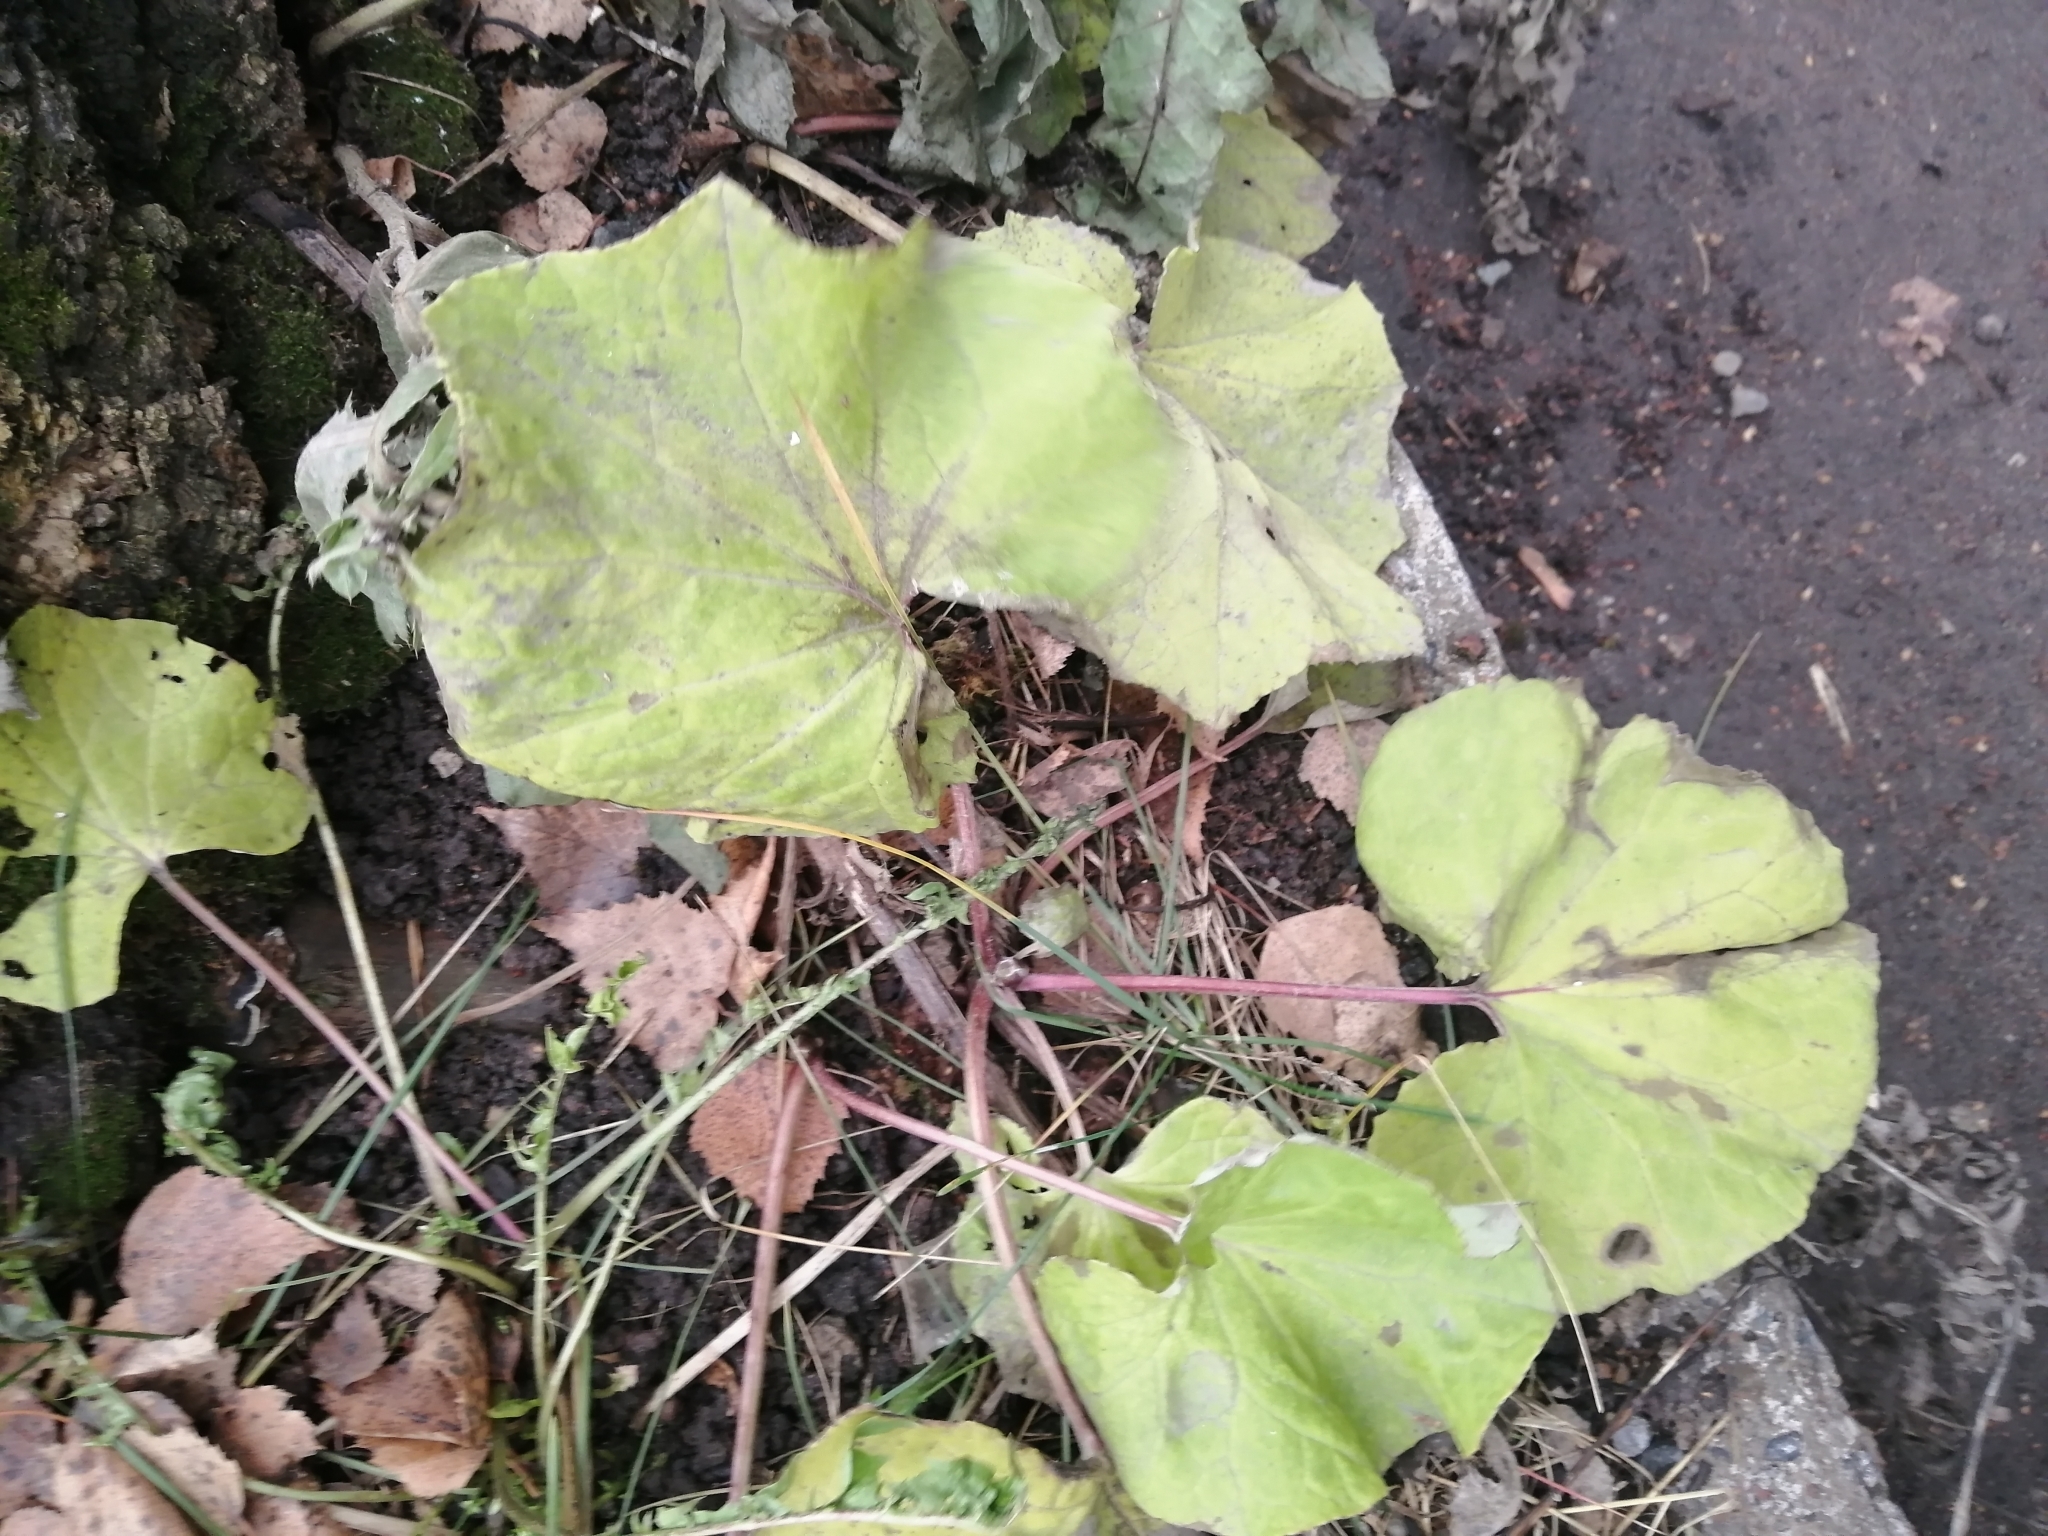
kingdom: Plantae
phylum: Tracheophyta
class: Magnoliopsida
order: Asterales
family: Asteraceae
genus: Tussilago
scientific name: Tussilago farfara
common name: Coltsfoot
